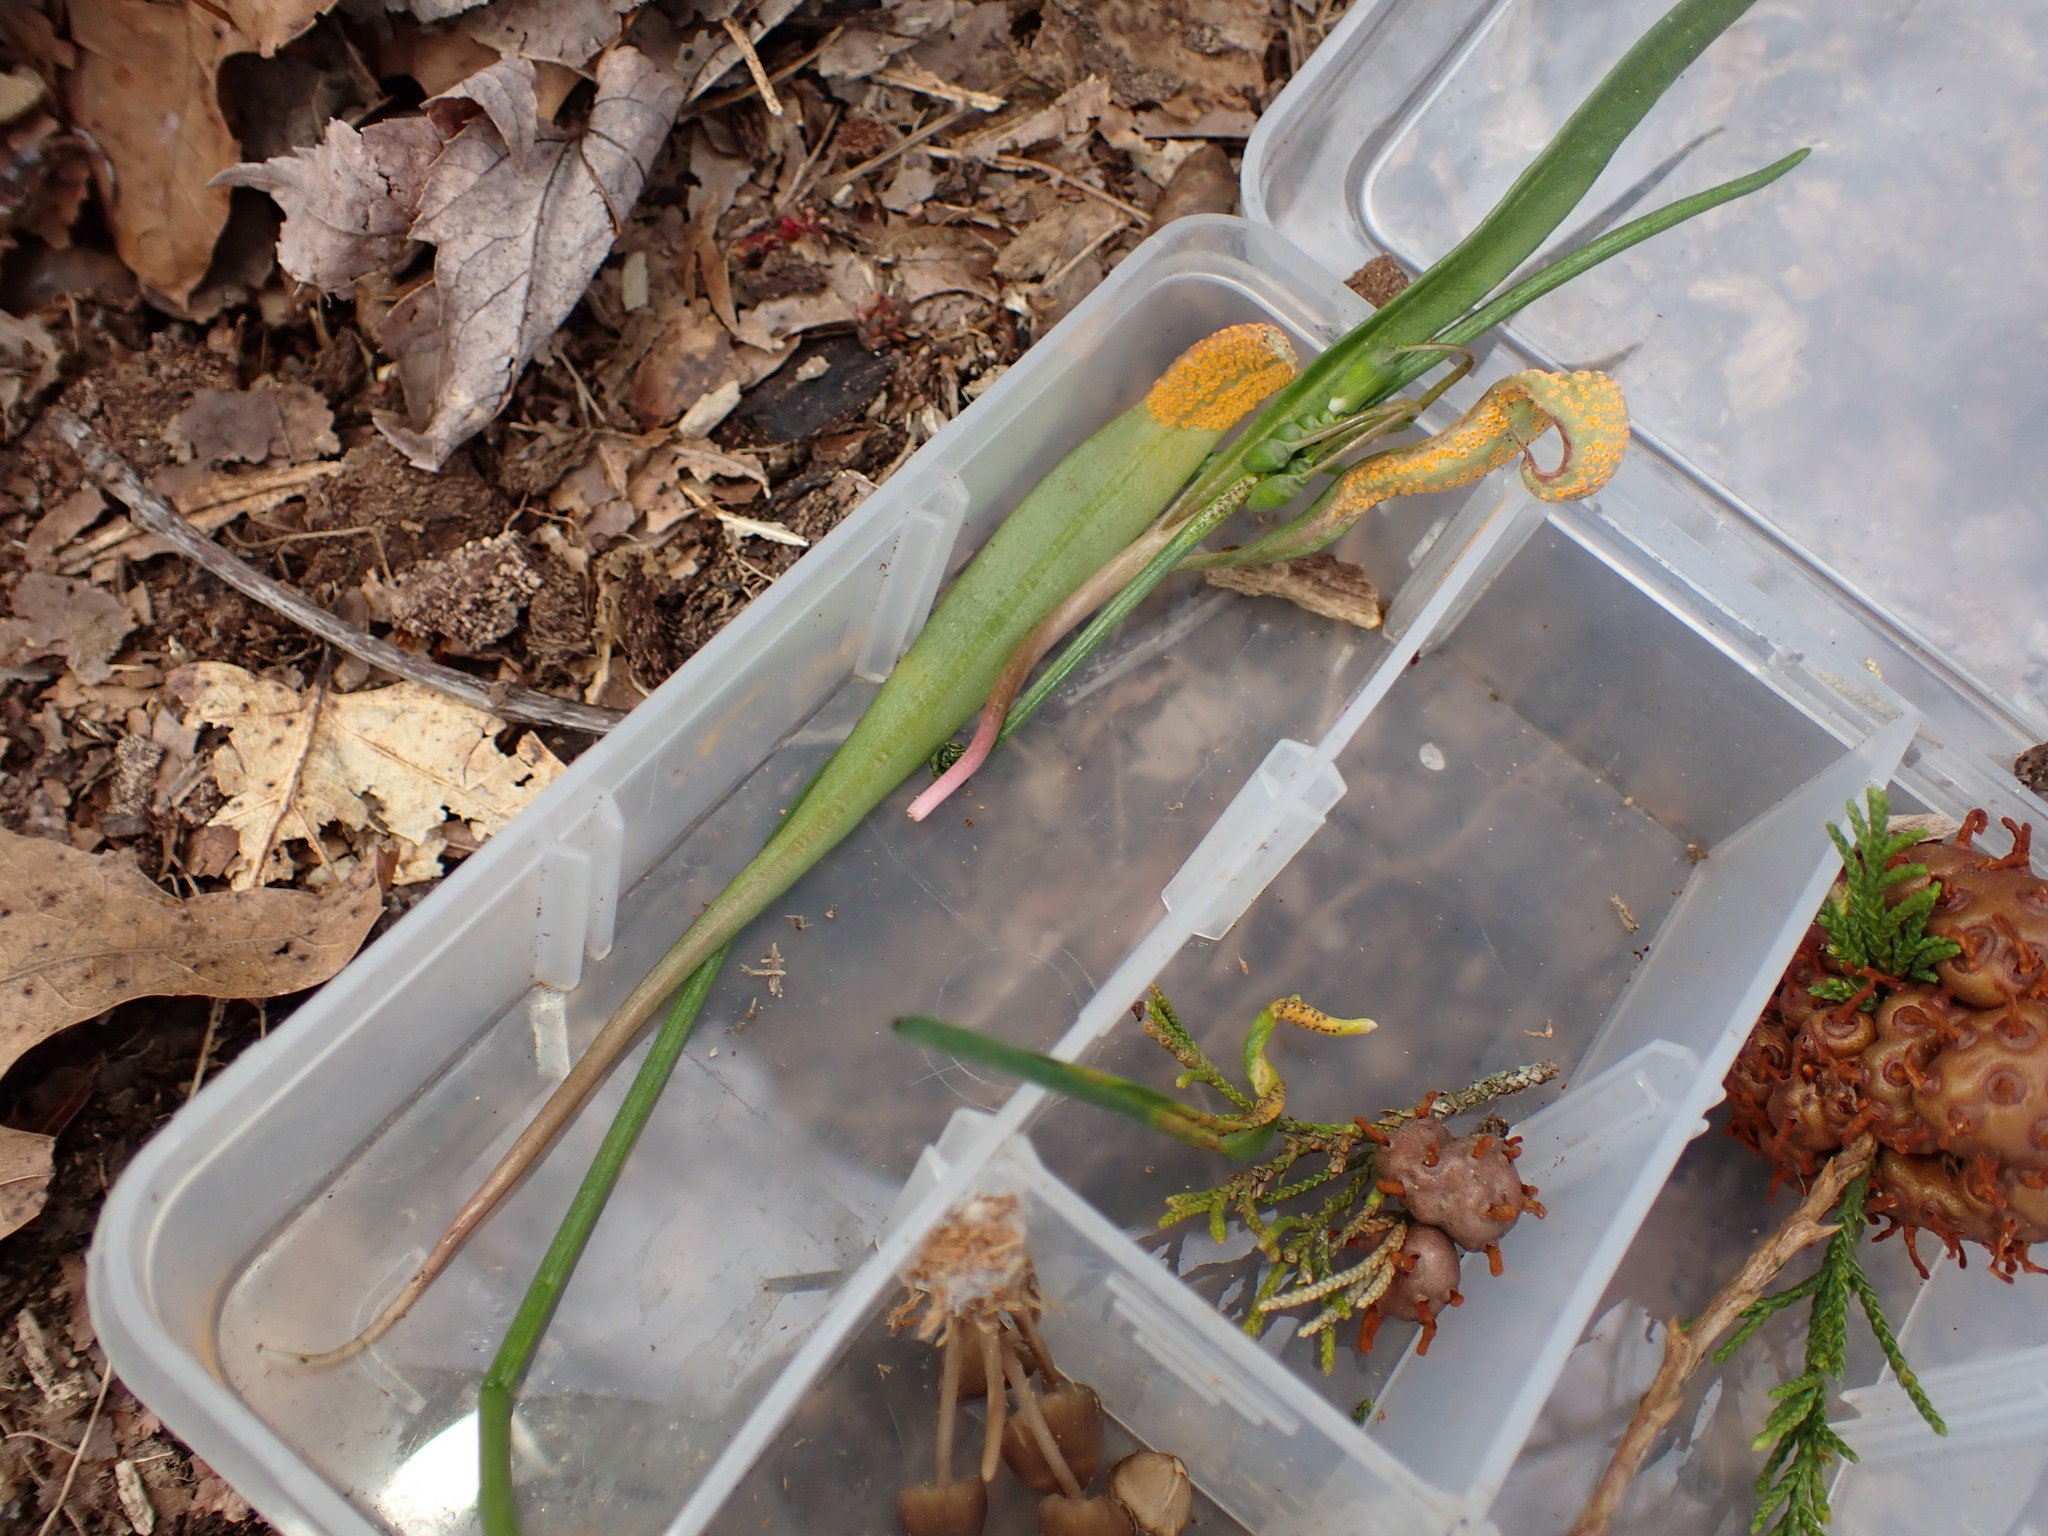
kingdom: Fungi
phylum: Basidiomycota
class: Pucciniomycetes
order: Pucciniales
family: Pucciniaceae
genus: Puccinia
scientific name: Puccinia mariae-wilsoniae
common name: Spring beauty rust
